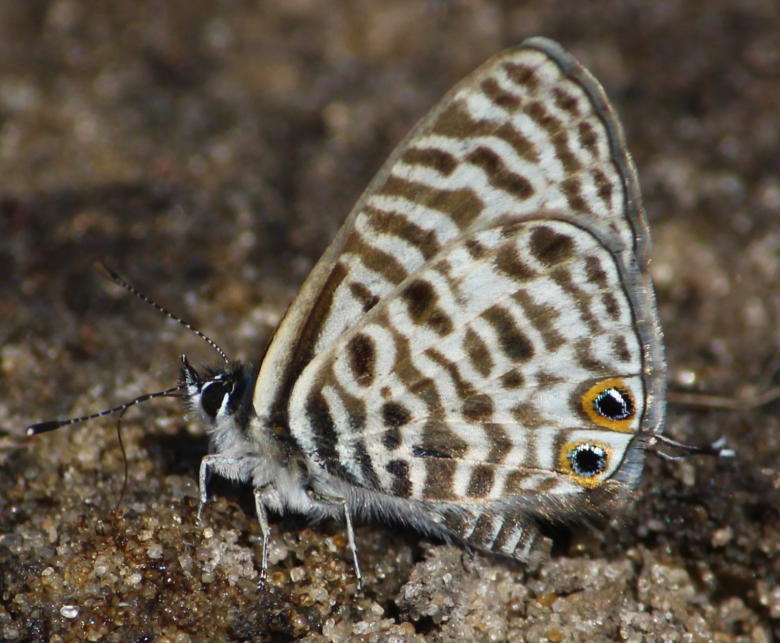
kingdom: Animalia
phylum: Arthropoda
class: Insecta
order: Lepidoptera
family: Lycaenidae
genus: Leptotes
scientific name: Leptotes
